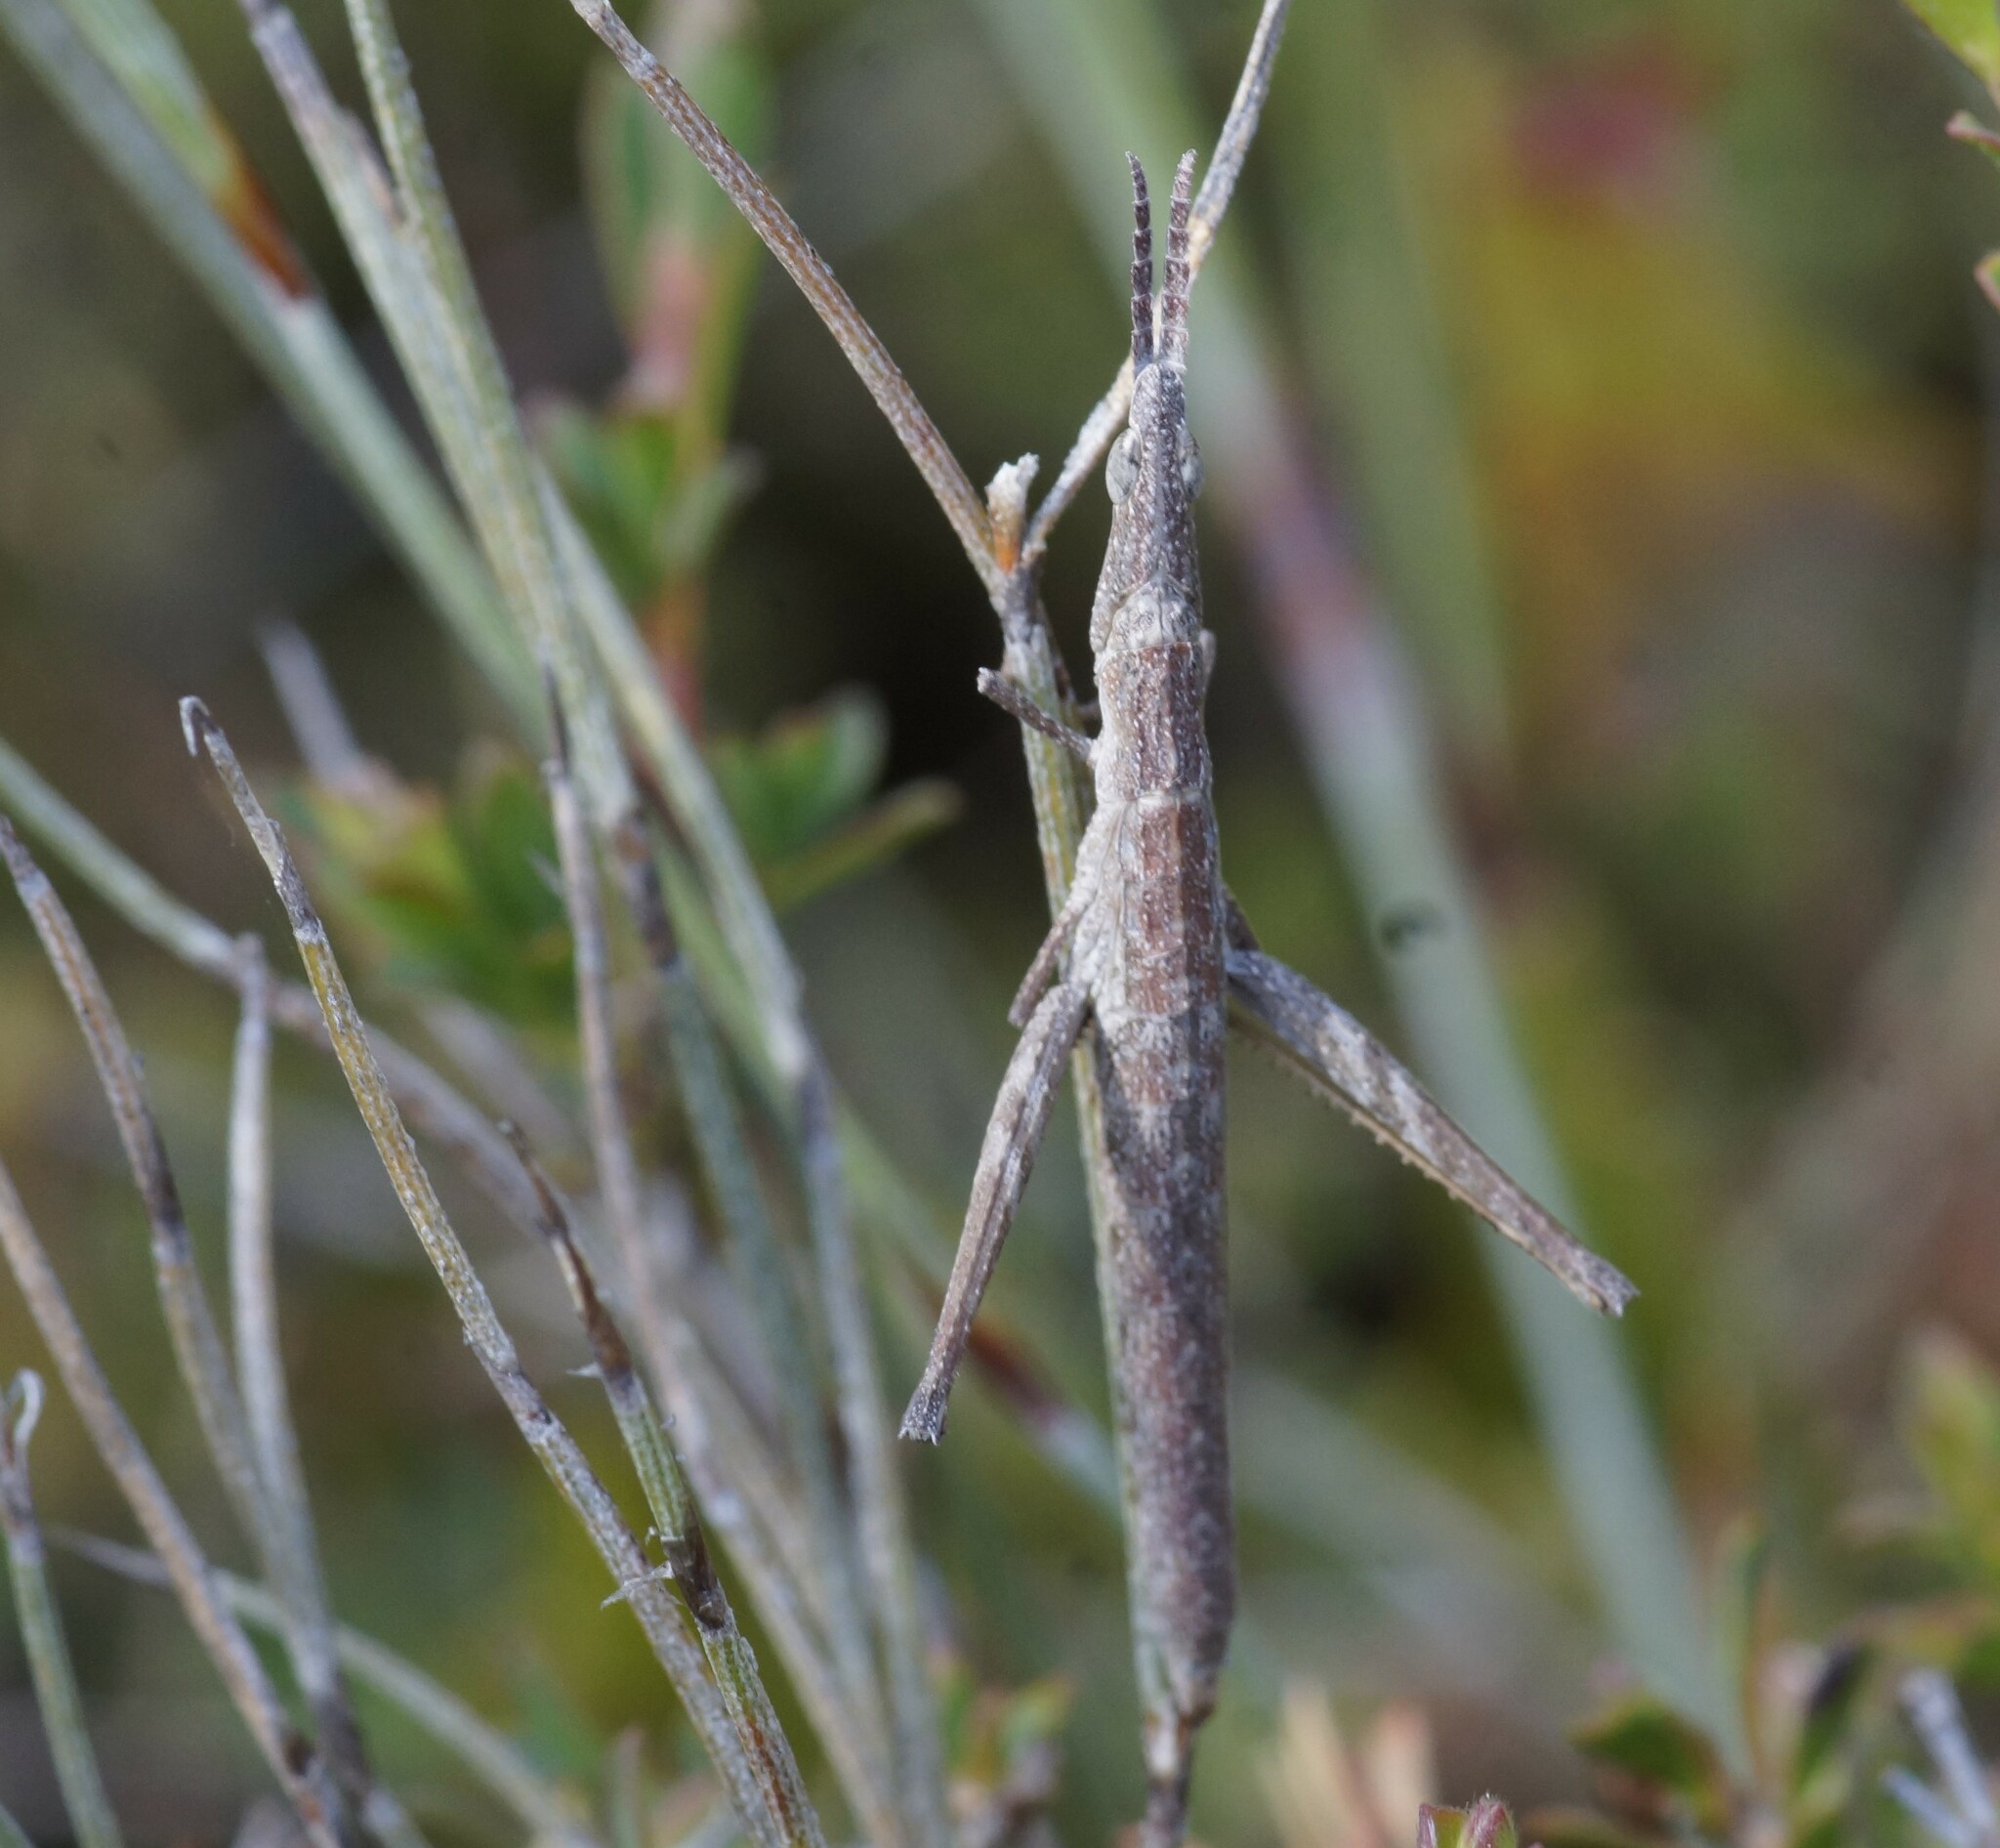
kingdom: Animalia
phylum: Arthropoda
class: Insecta
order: Orthoptera
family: Morabidae
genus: Vandiemenella
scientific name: Vandiemenella viatica
